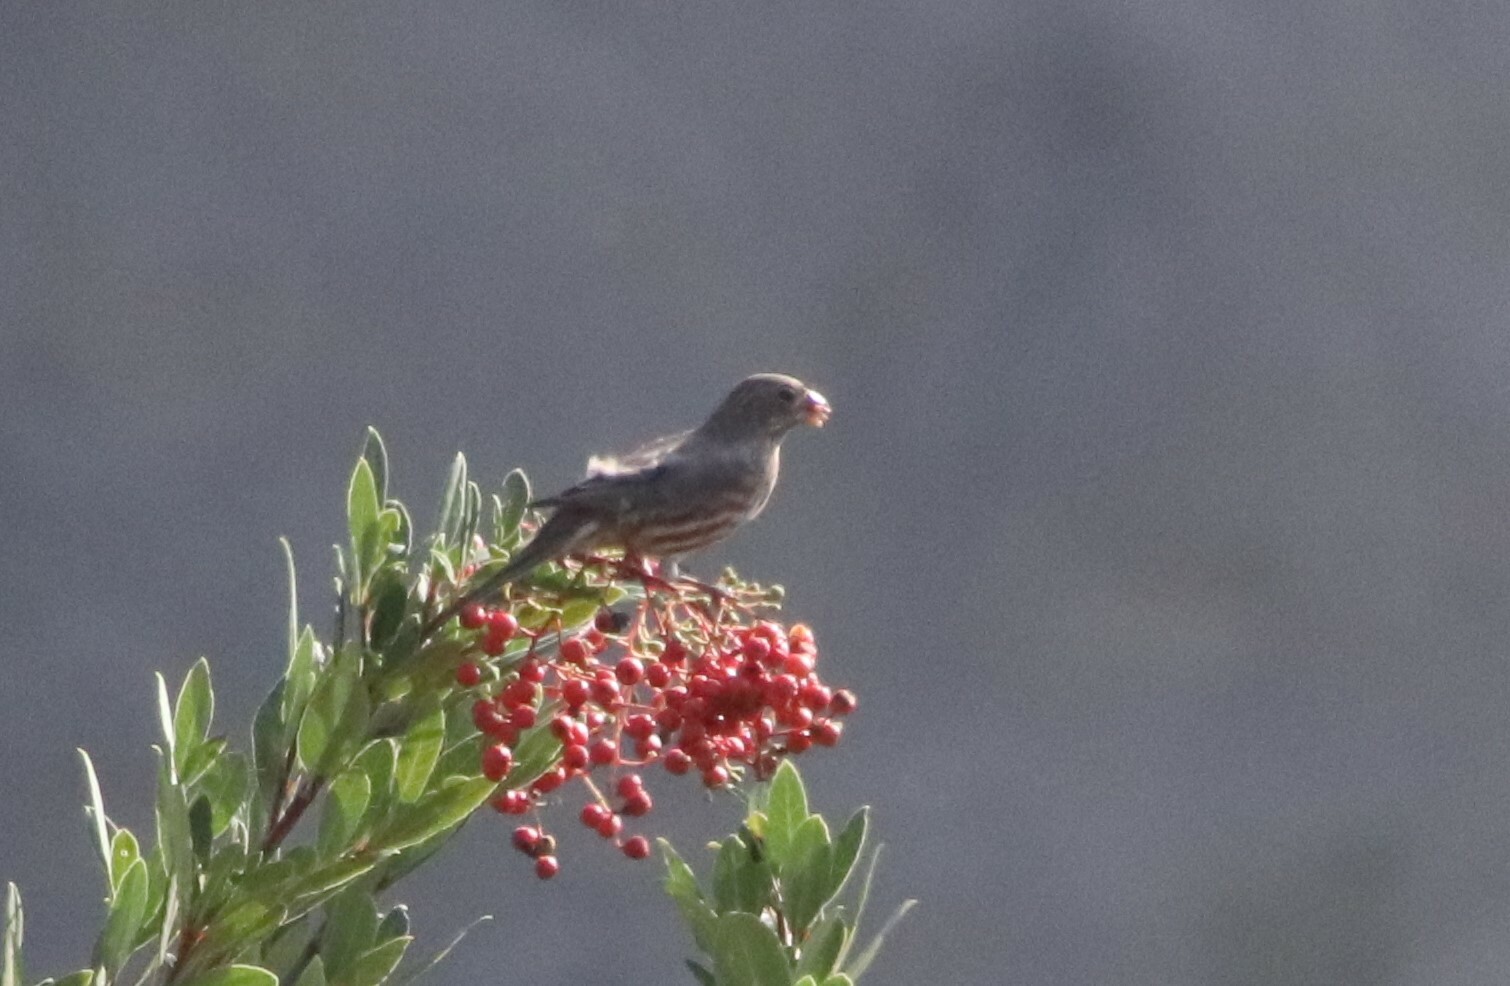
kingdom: Animalia
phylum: Chordata
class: Aves
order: Passeriformes
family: Fringillidae
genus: Haemorhous
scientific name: Haemorhous mexicanus
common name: House finch
